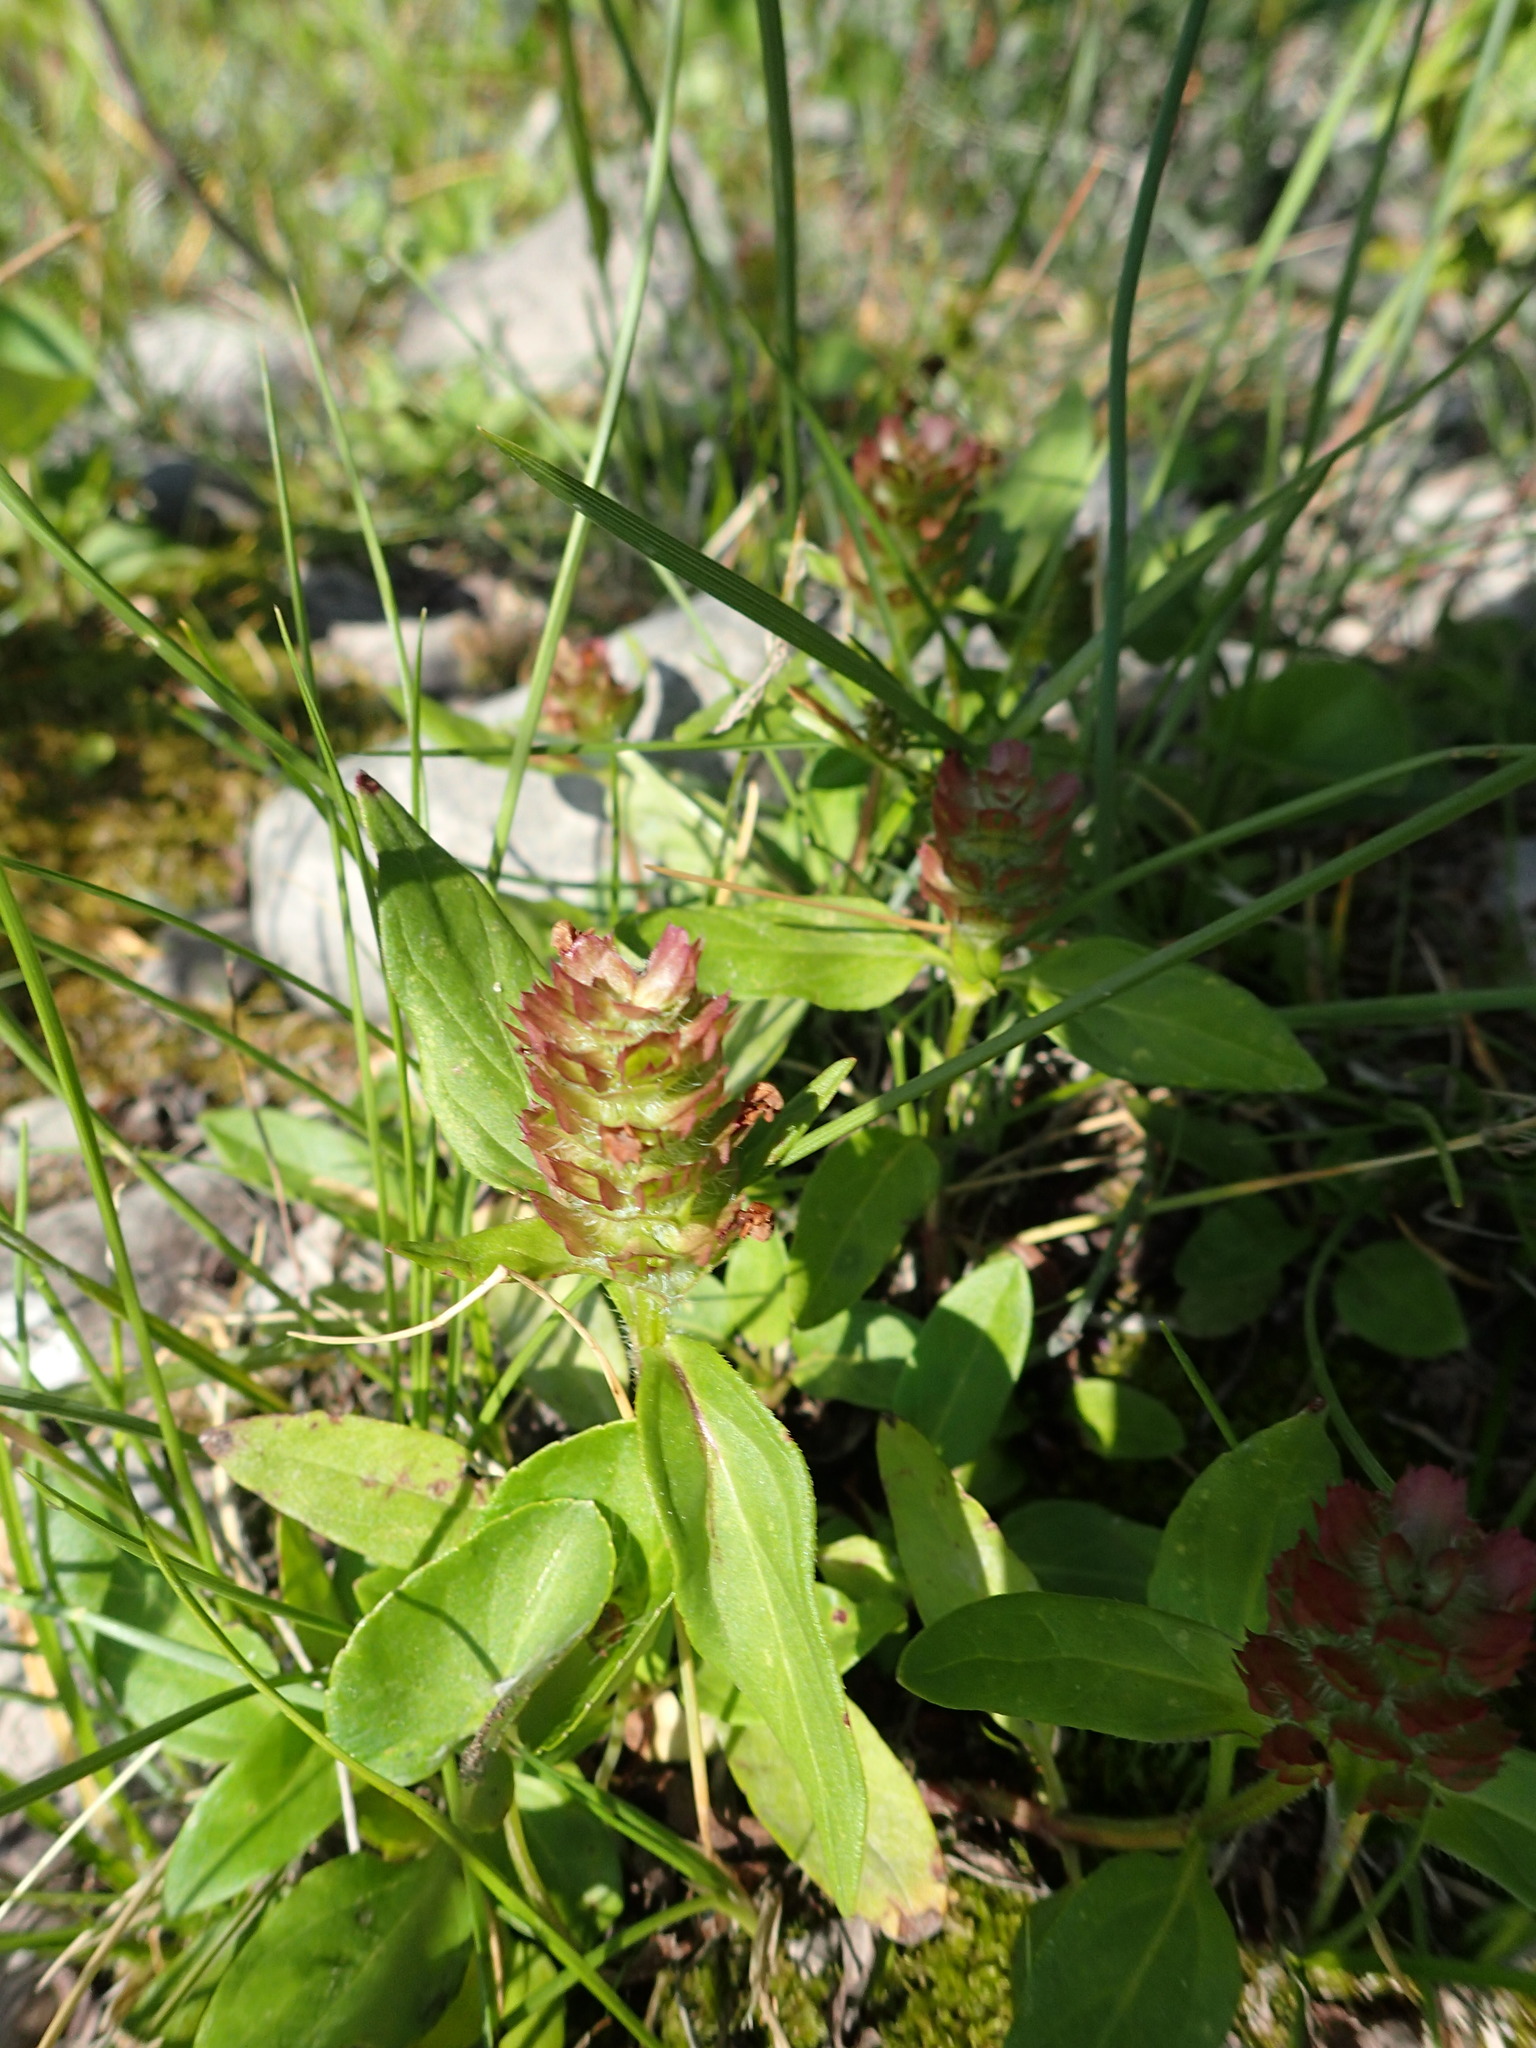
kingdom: Plantae
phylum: Tracheophyta
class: Magnoliopsida
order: Lamiales
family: Lamiaceae
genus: Prunella
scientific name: Prunella vulgaris
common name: Heal-all
